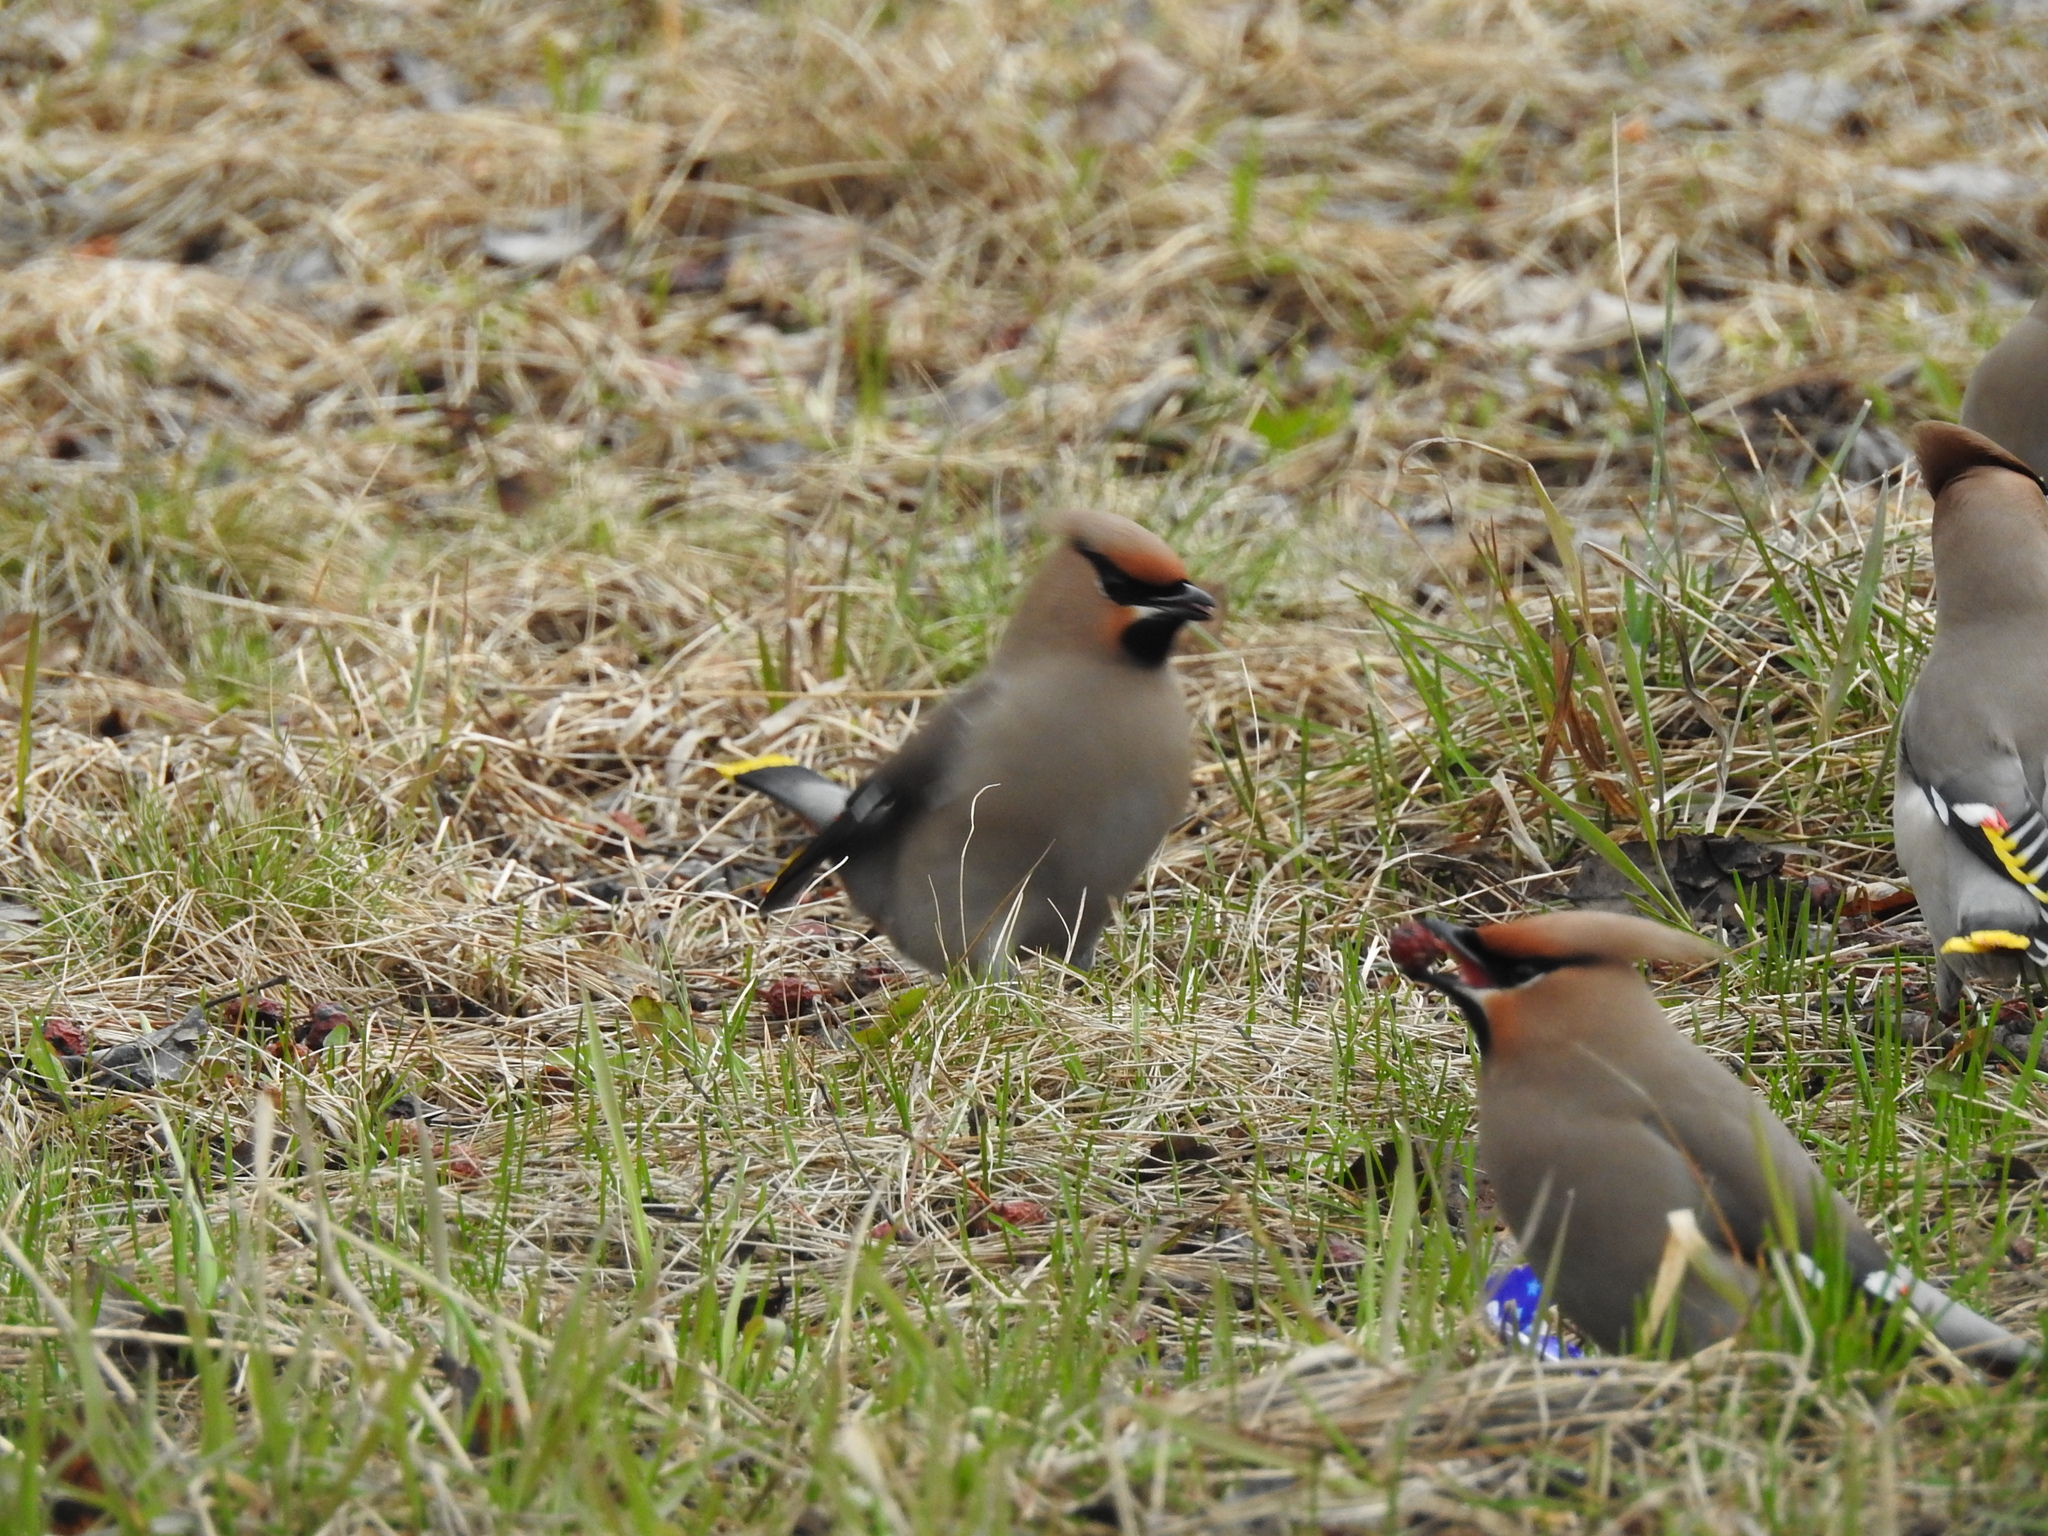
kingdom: Animalia
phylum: Chordata
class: Aves
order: Passeriformes
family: Bombycillidae
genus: Bombycilla
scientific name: Bombycilla garrulus
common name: Bohemian waxwing
